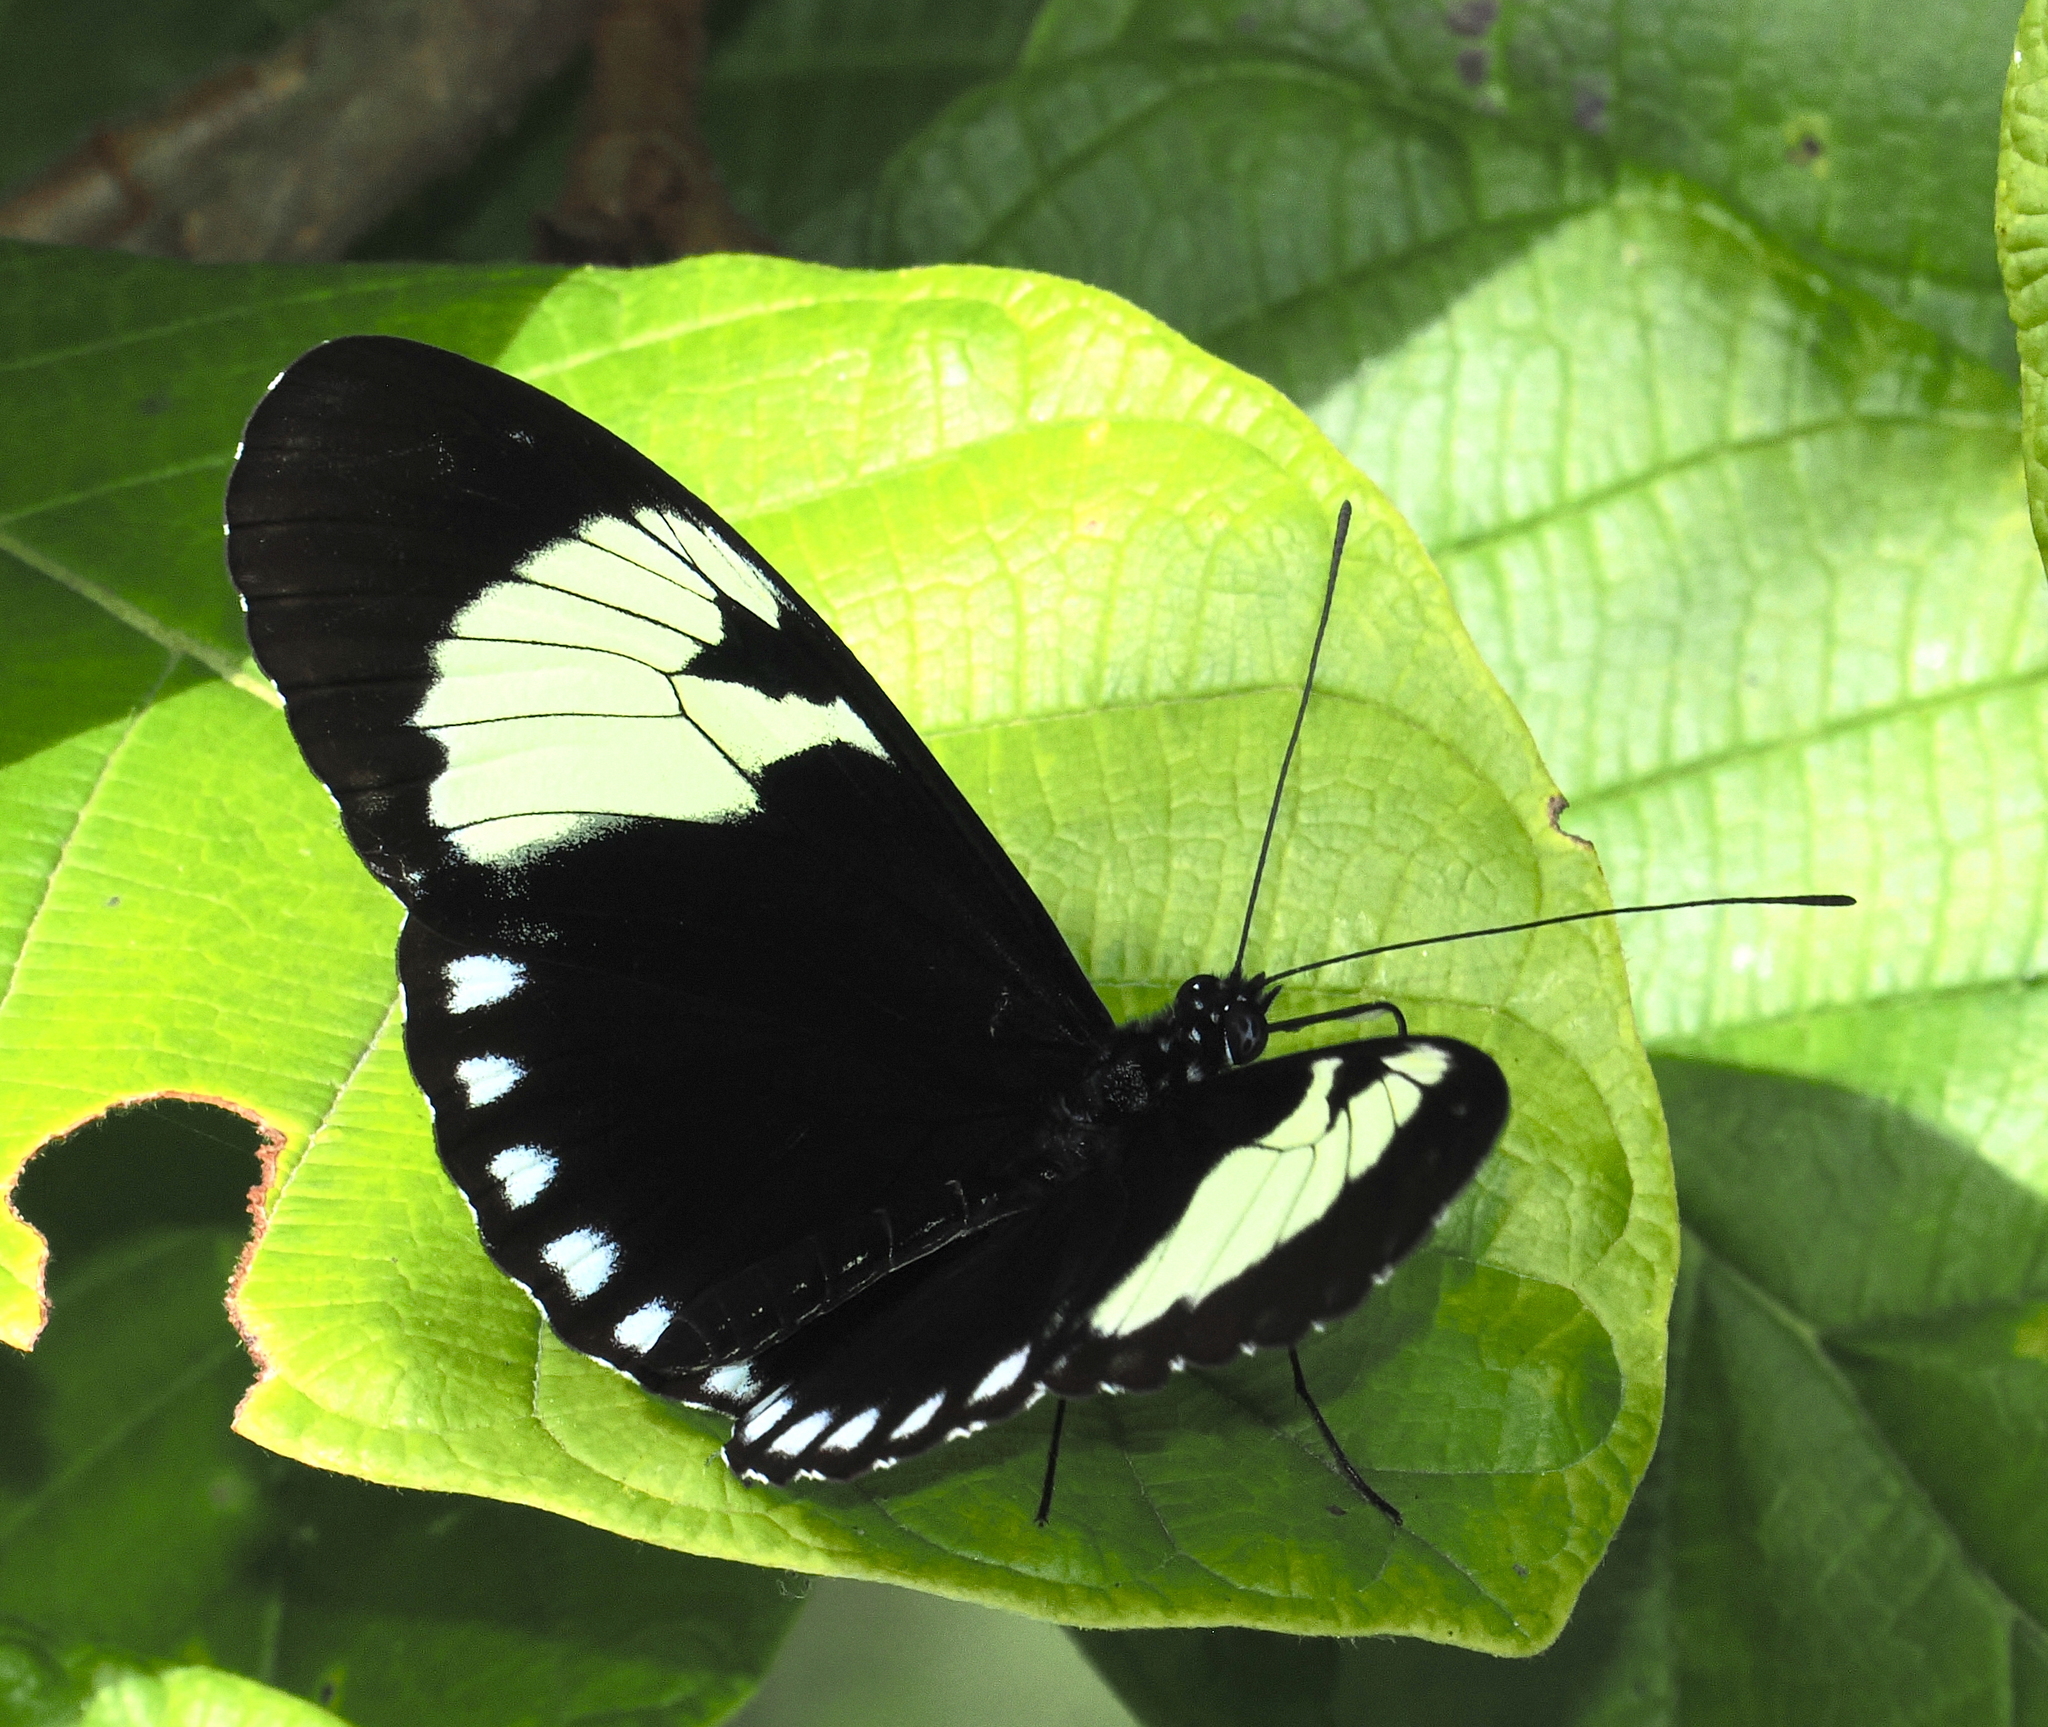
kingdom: Animalia
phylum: Arthropoda
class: Insecta
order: Lepidoptera
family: Nymphalidae
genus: Heliconius
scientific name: Heliconius cydno
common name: Cydno longwing
